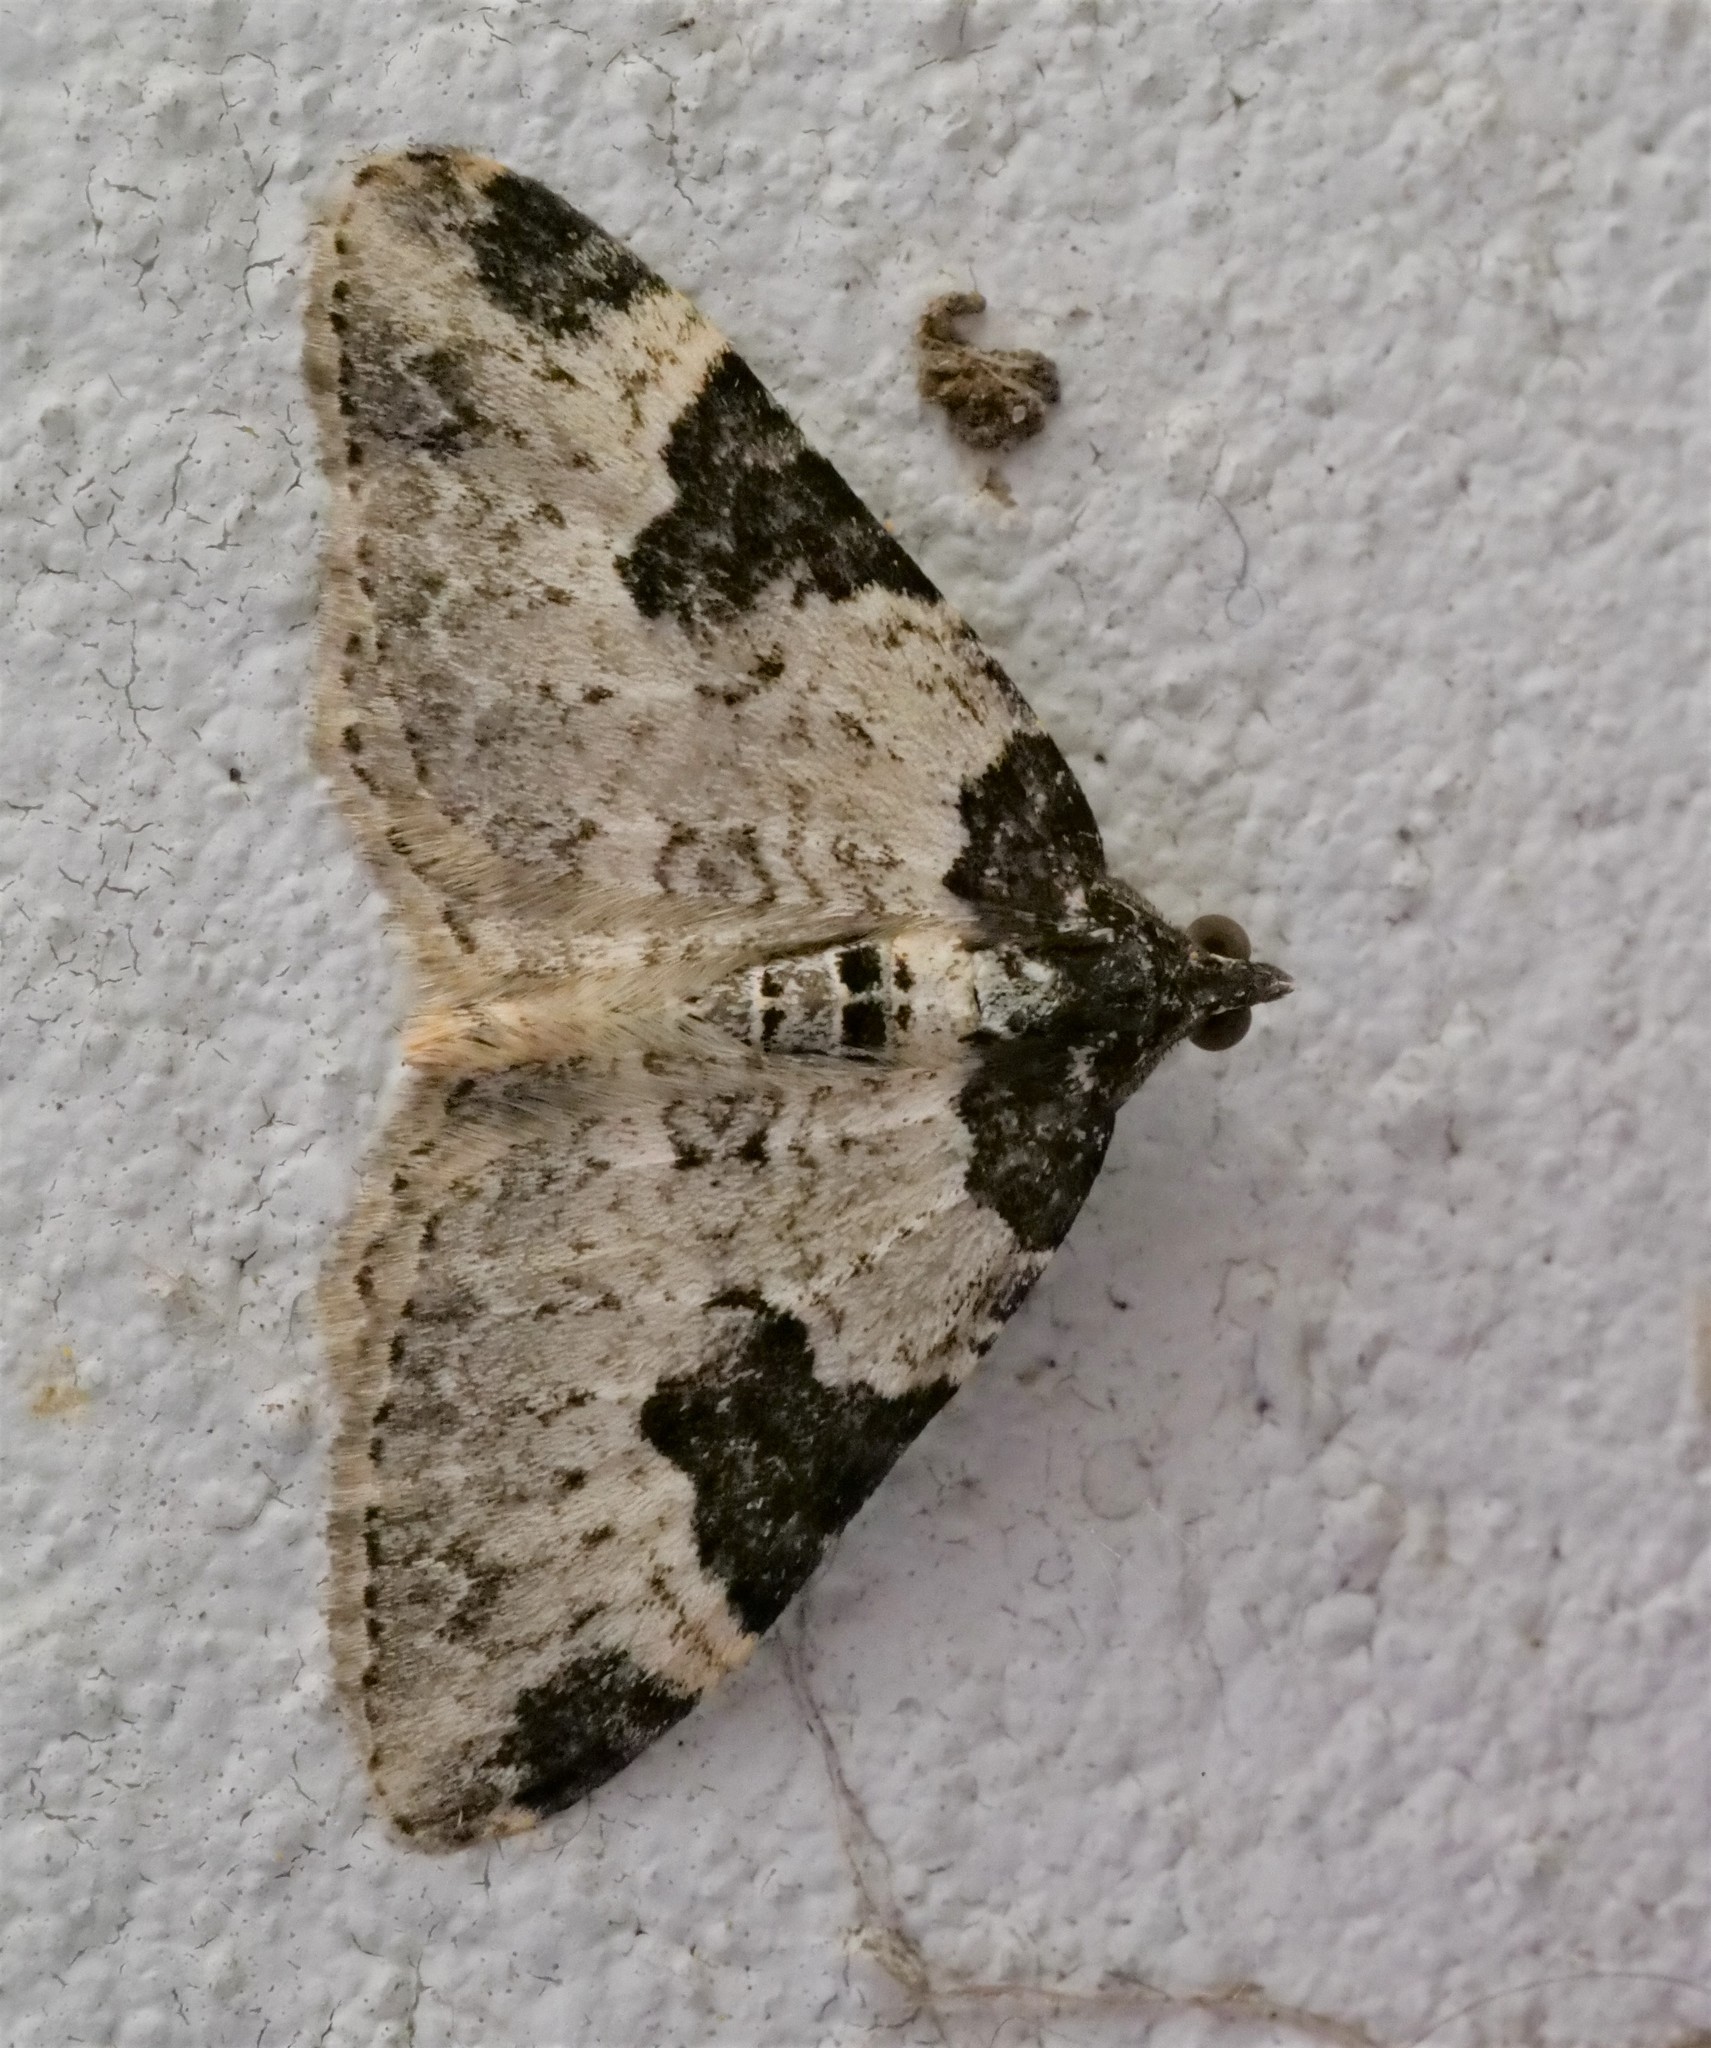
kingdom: Animalia
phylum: Arthropoda
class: Insecta
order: Lepidoptera
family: Geometridae
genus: Xanthorhoe
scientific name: Xanthorhoe fluctuata
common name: Garden carpet
